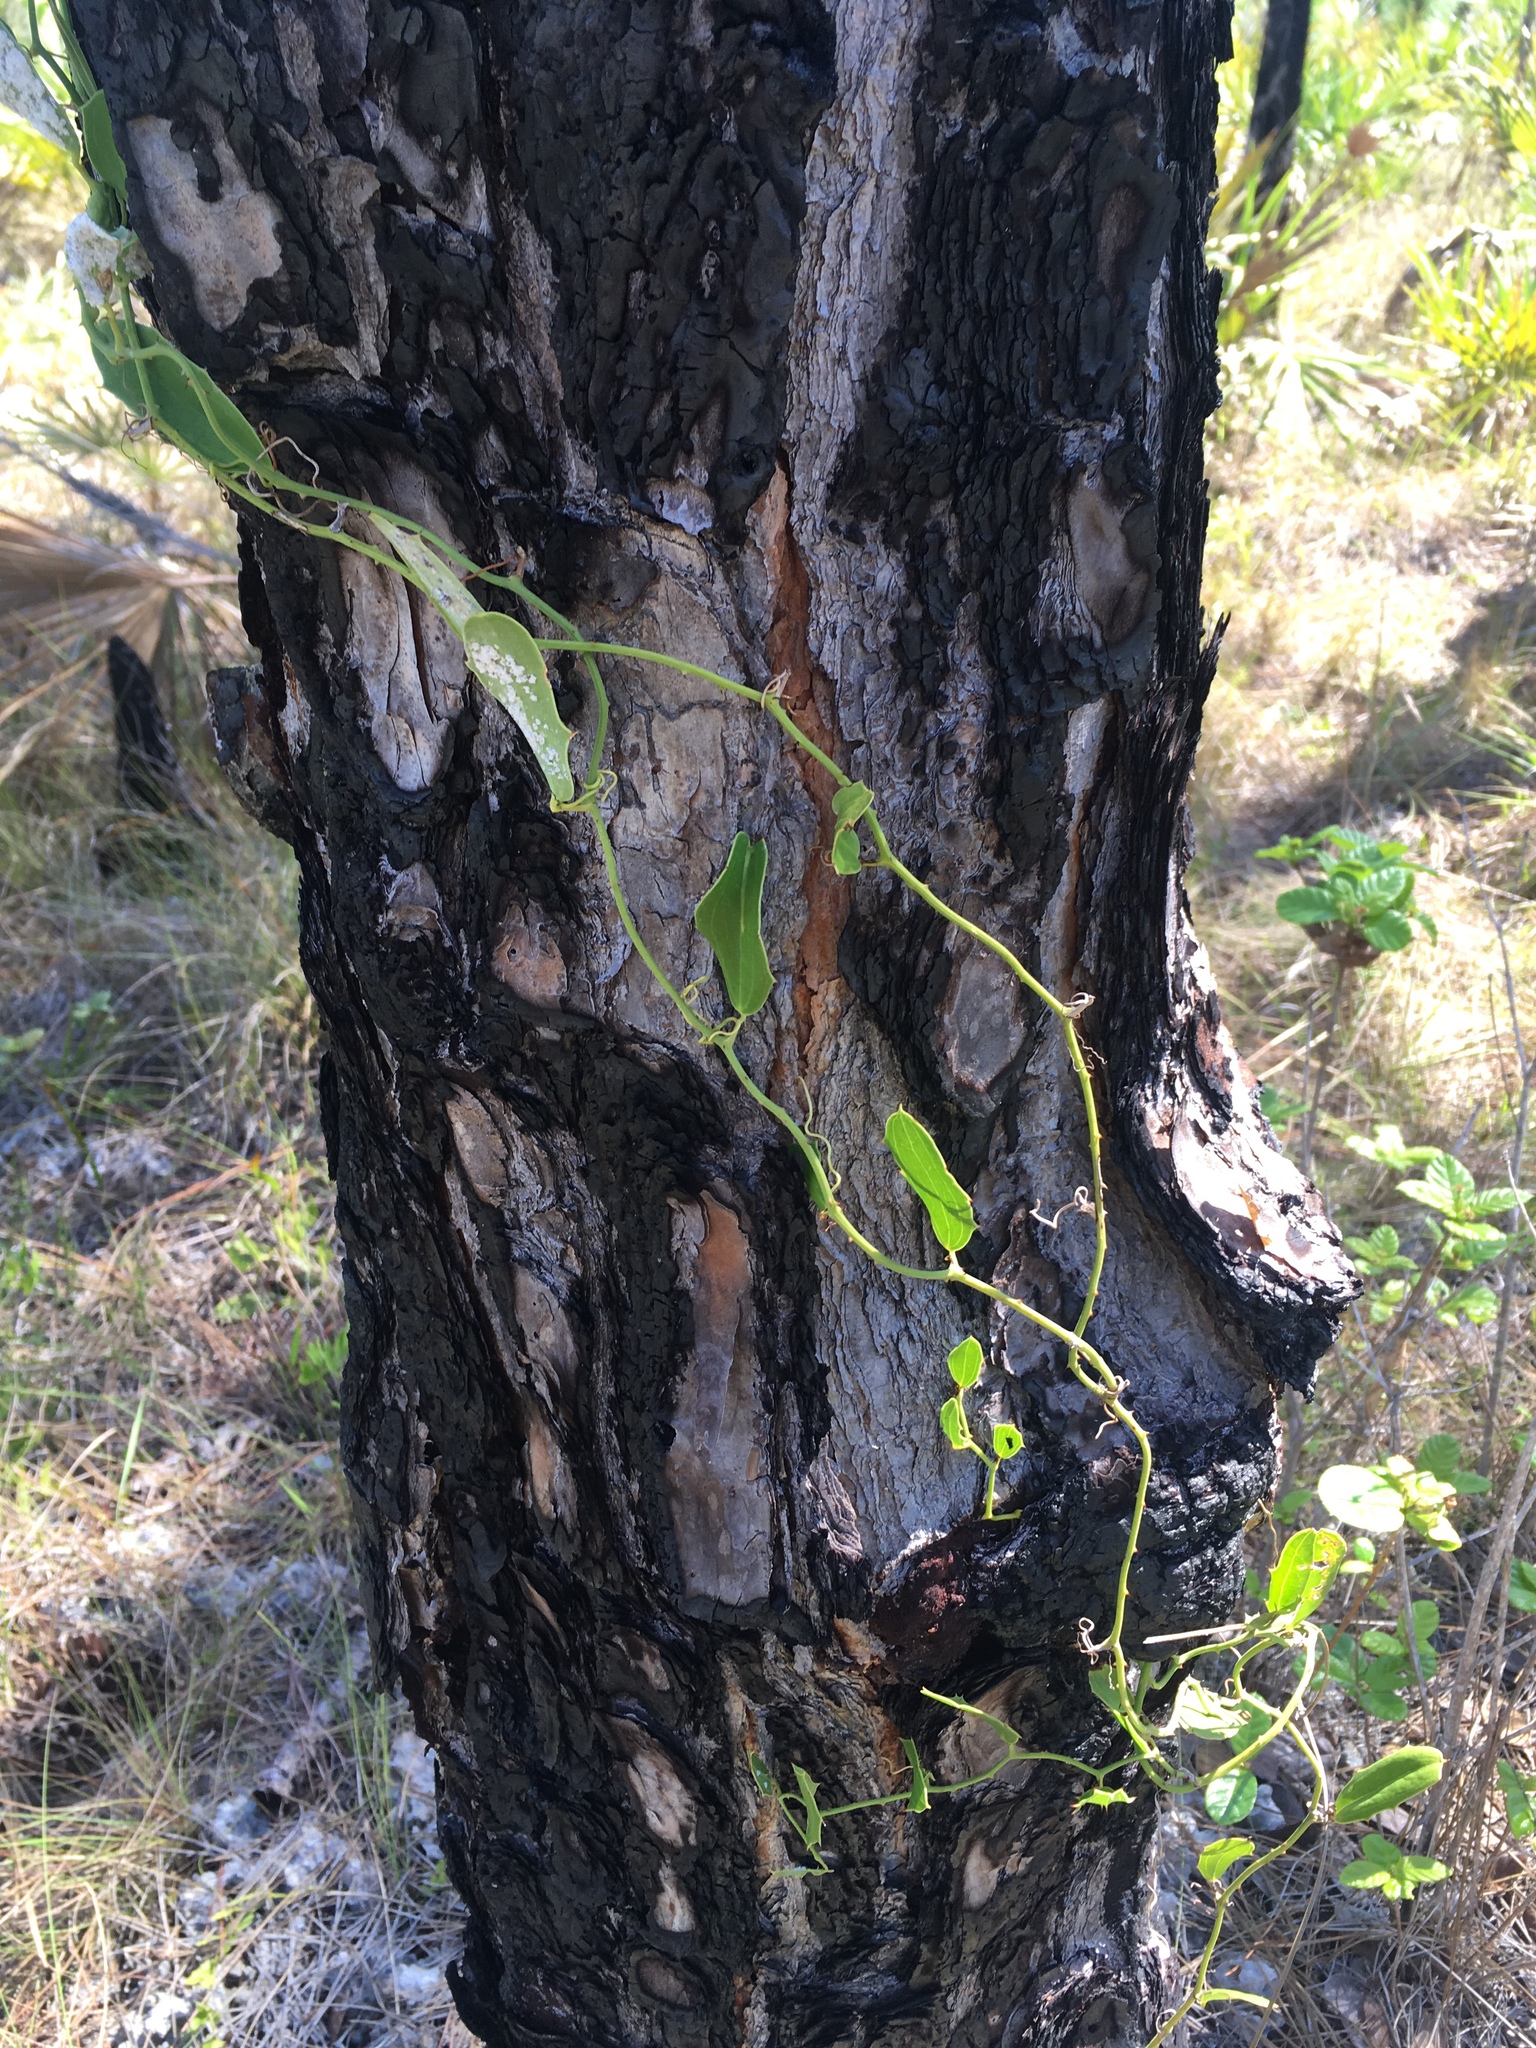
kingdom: Plantae
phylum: Tracheophyta
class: Liliopsida
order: Liliales
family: Smilacaceae
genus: Smilax
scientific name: Smilax havanensis
